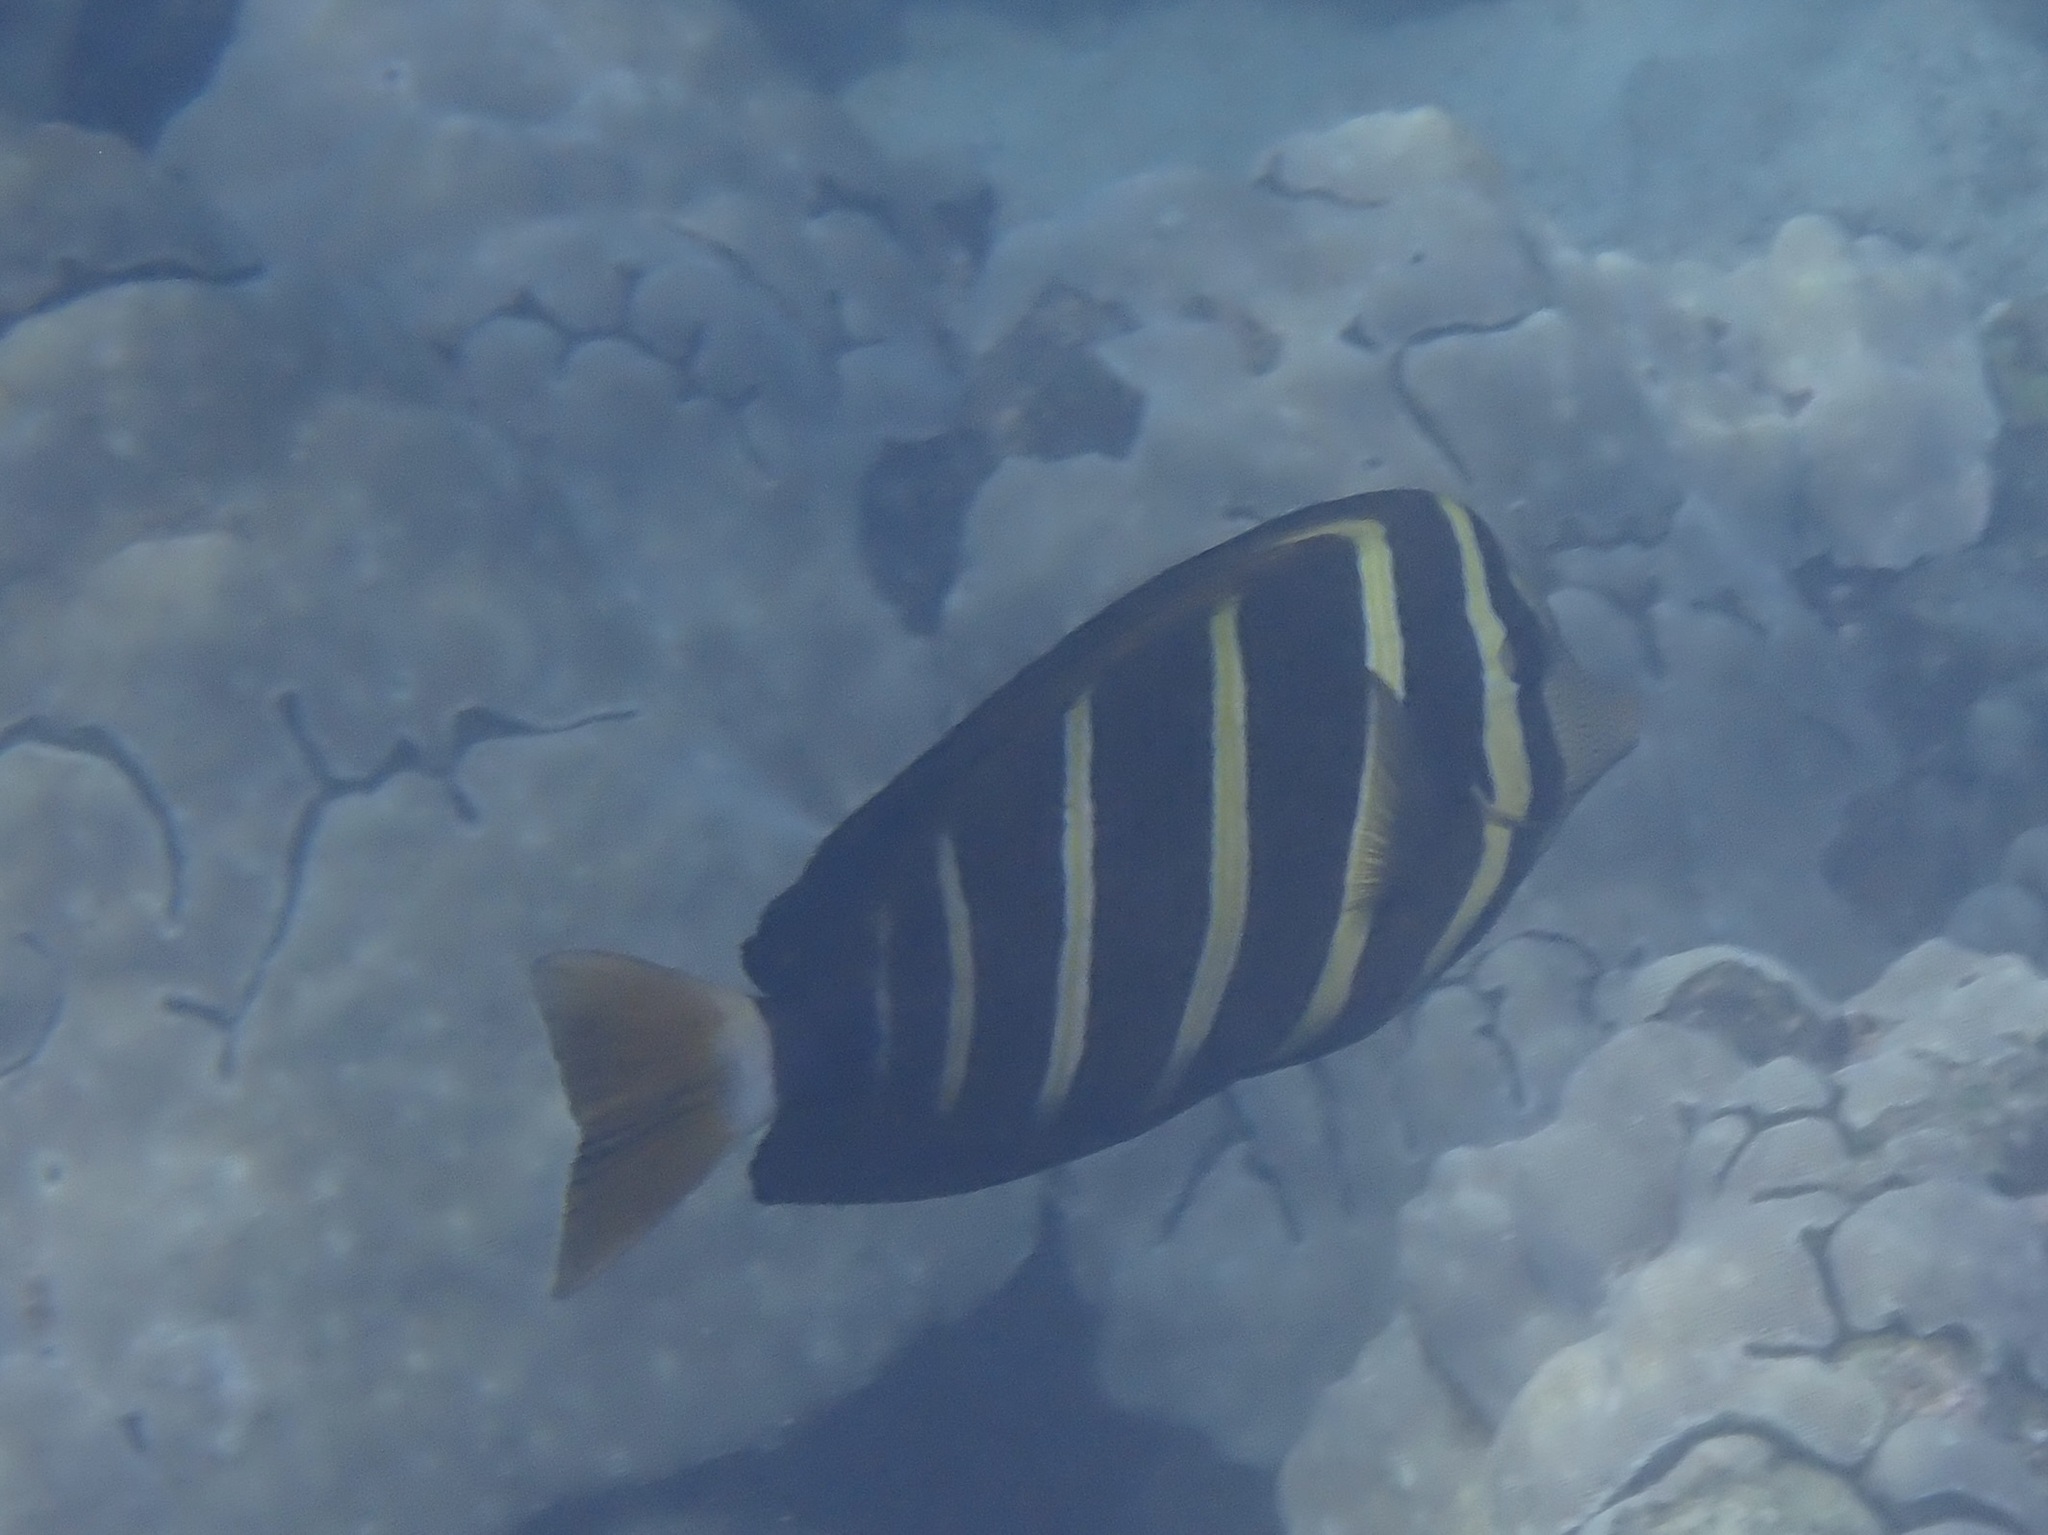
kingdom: Animalia
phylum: Chordata
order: Perciformes
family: Acanthuridae
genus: Zebrasoma
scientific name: Zebrasoma veliferum
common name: Sailfin surgeonfish
